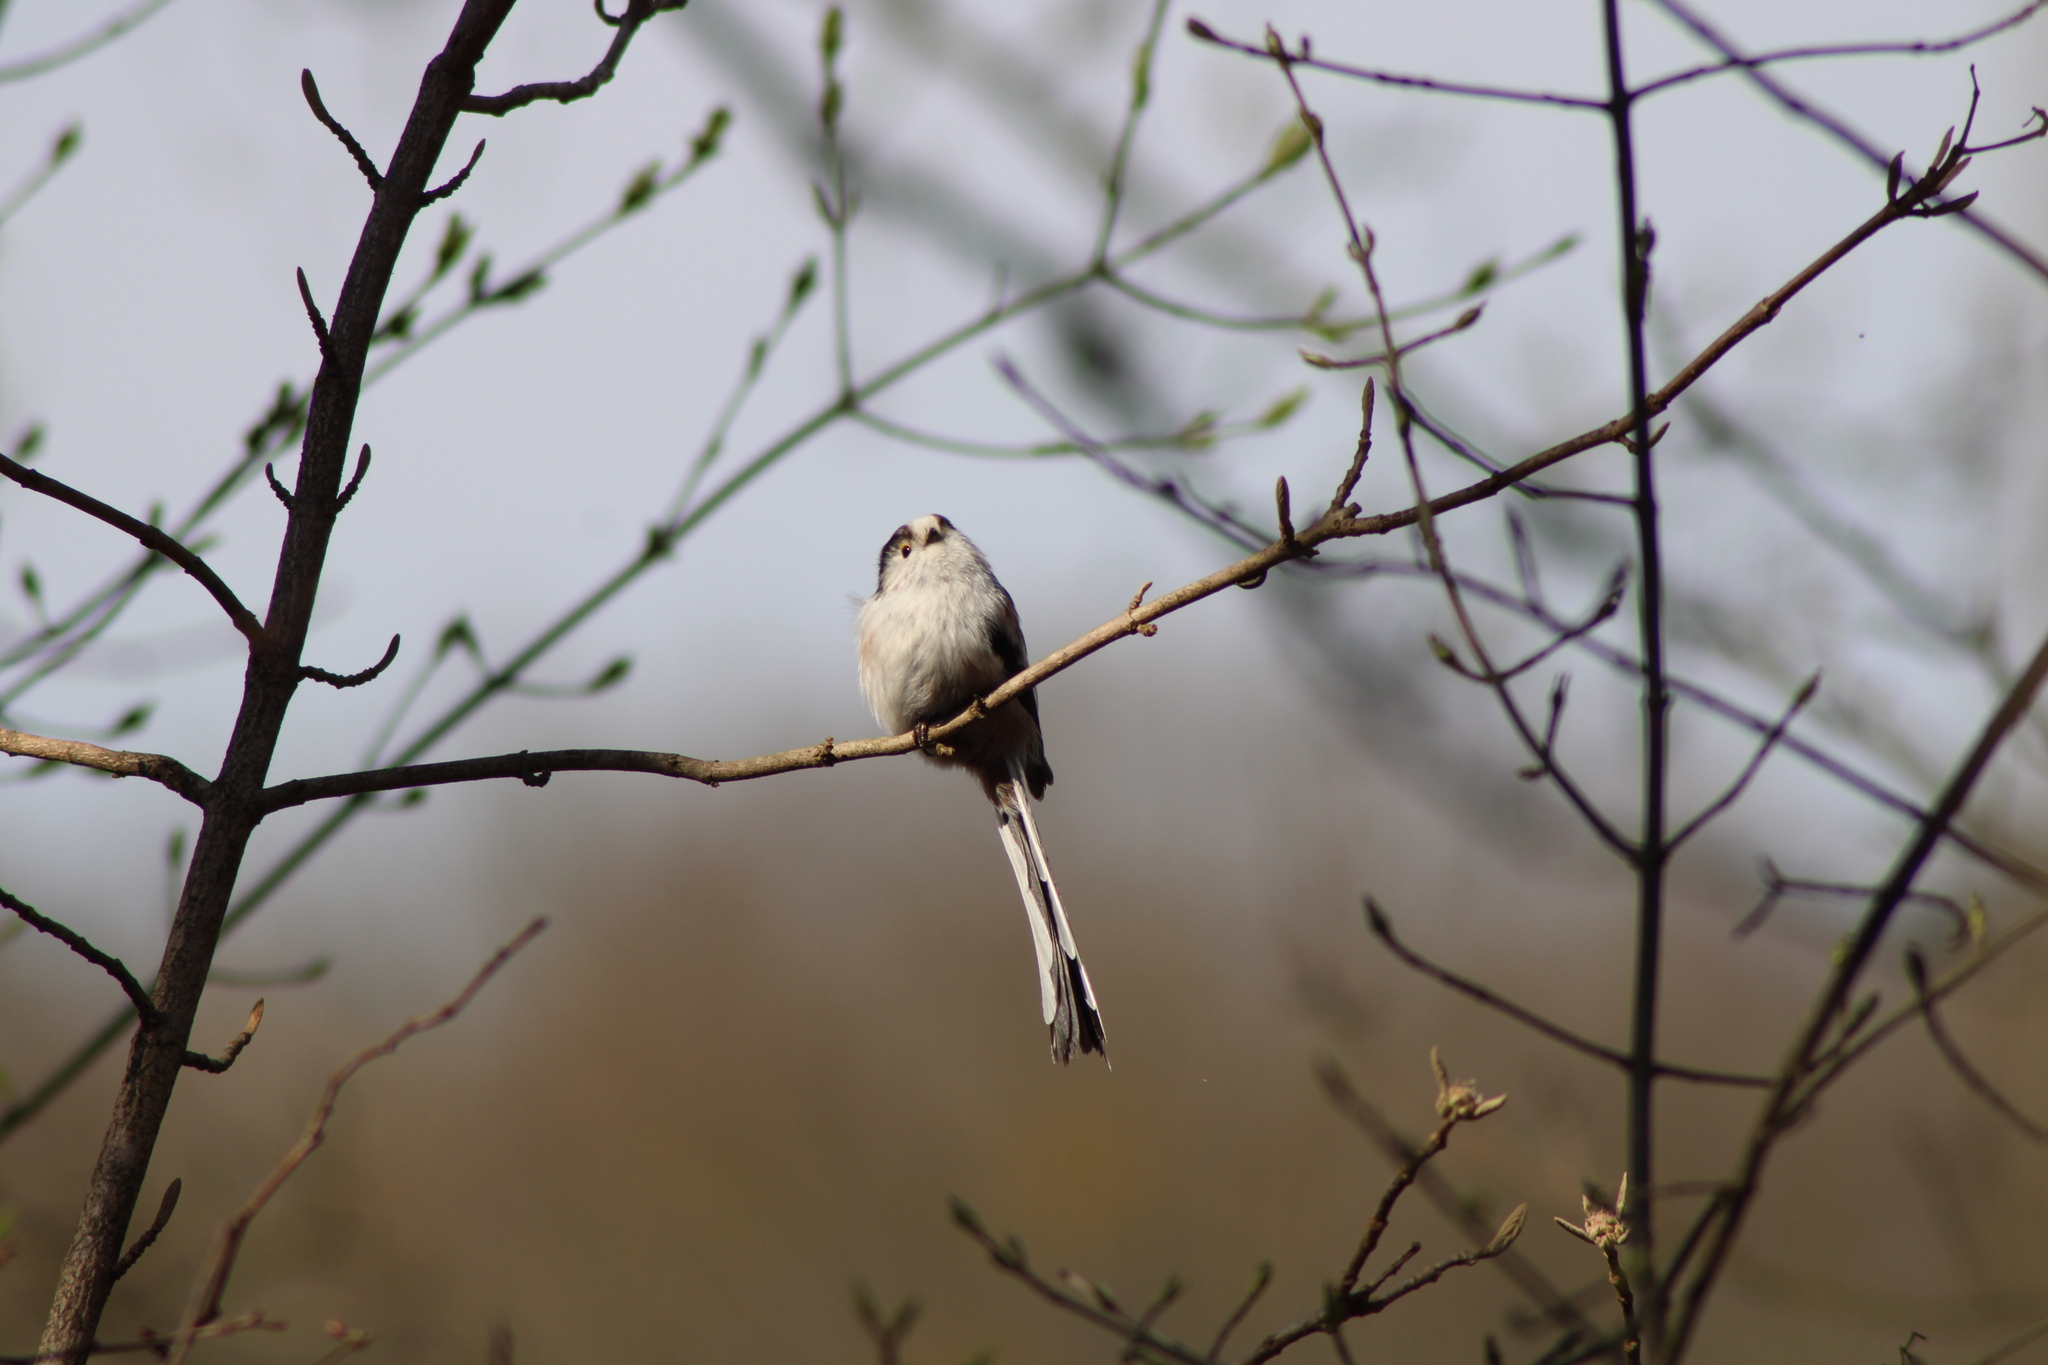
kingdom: Animalia
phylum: Chordata
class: Aves
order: Passeriformes
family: Aegithalidae
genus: Aegithalos
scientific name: Aegithalos caudatus
